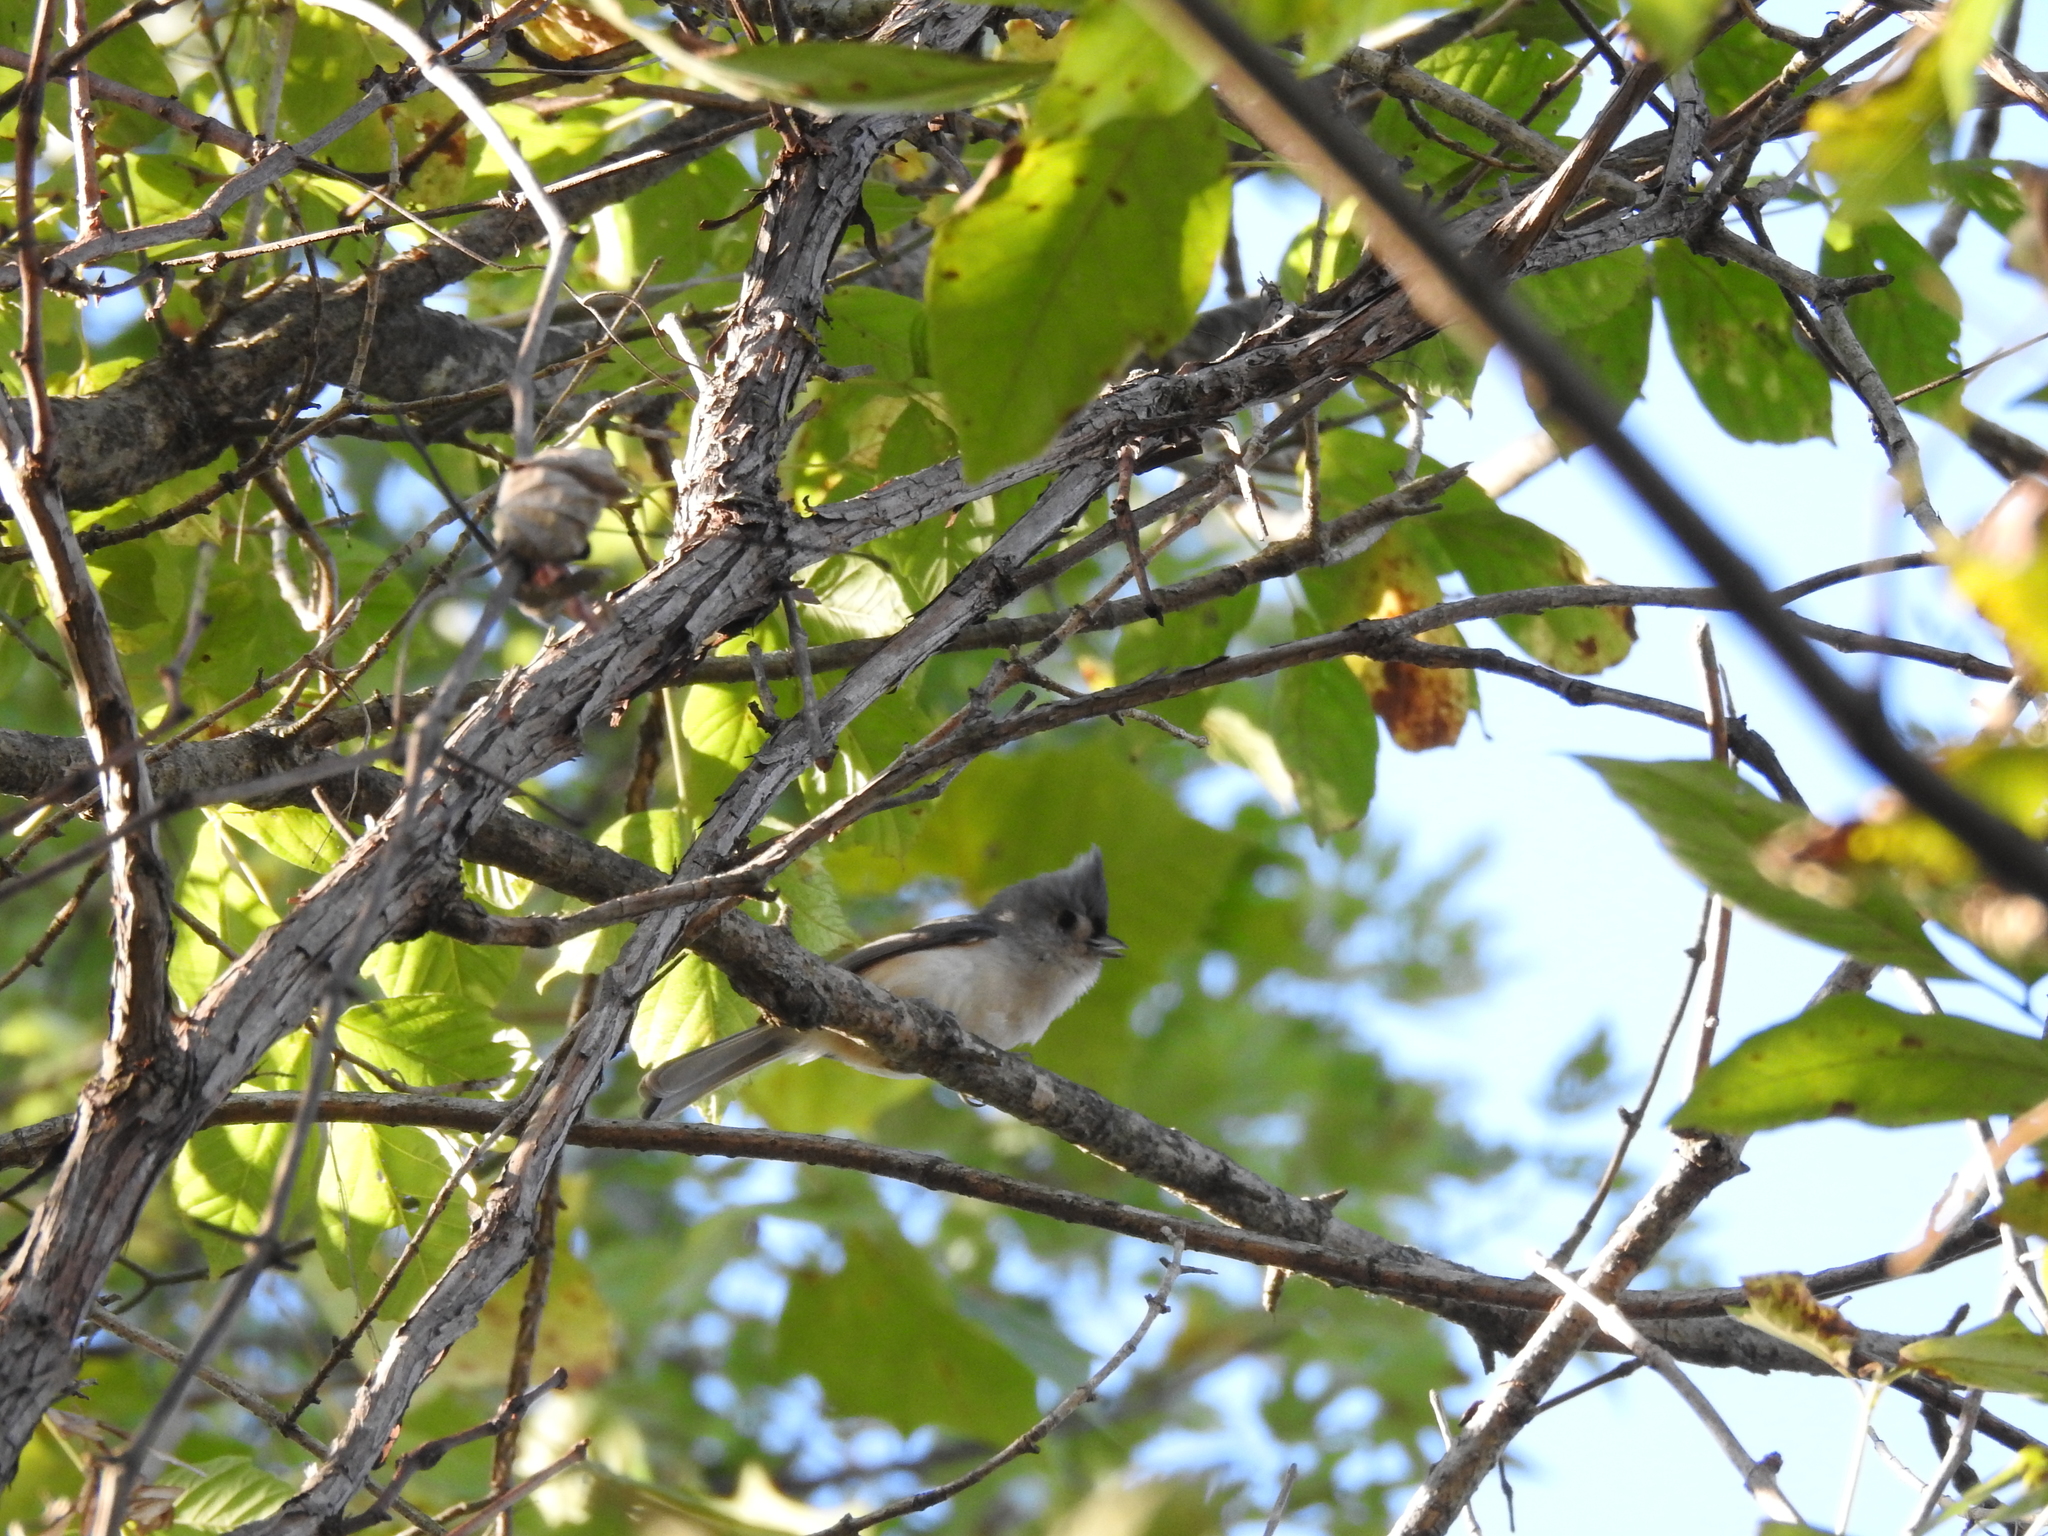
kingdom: Animalia
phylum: Chordata
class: Aves
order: Passeriformes
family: Paridae
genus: Baeolophus
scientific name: Baeolophus bicolor
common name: Tufted titmouse
